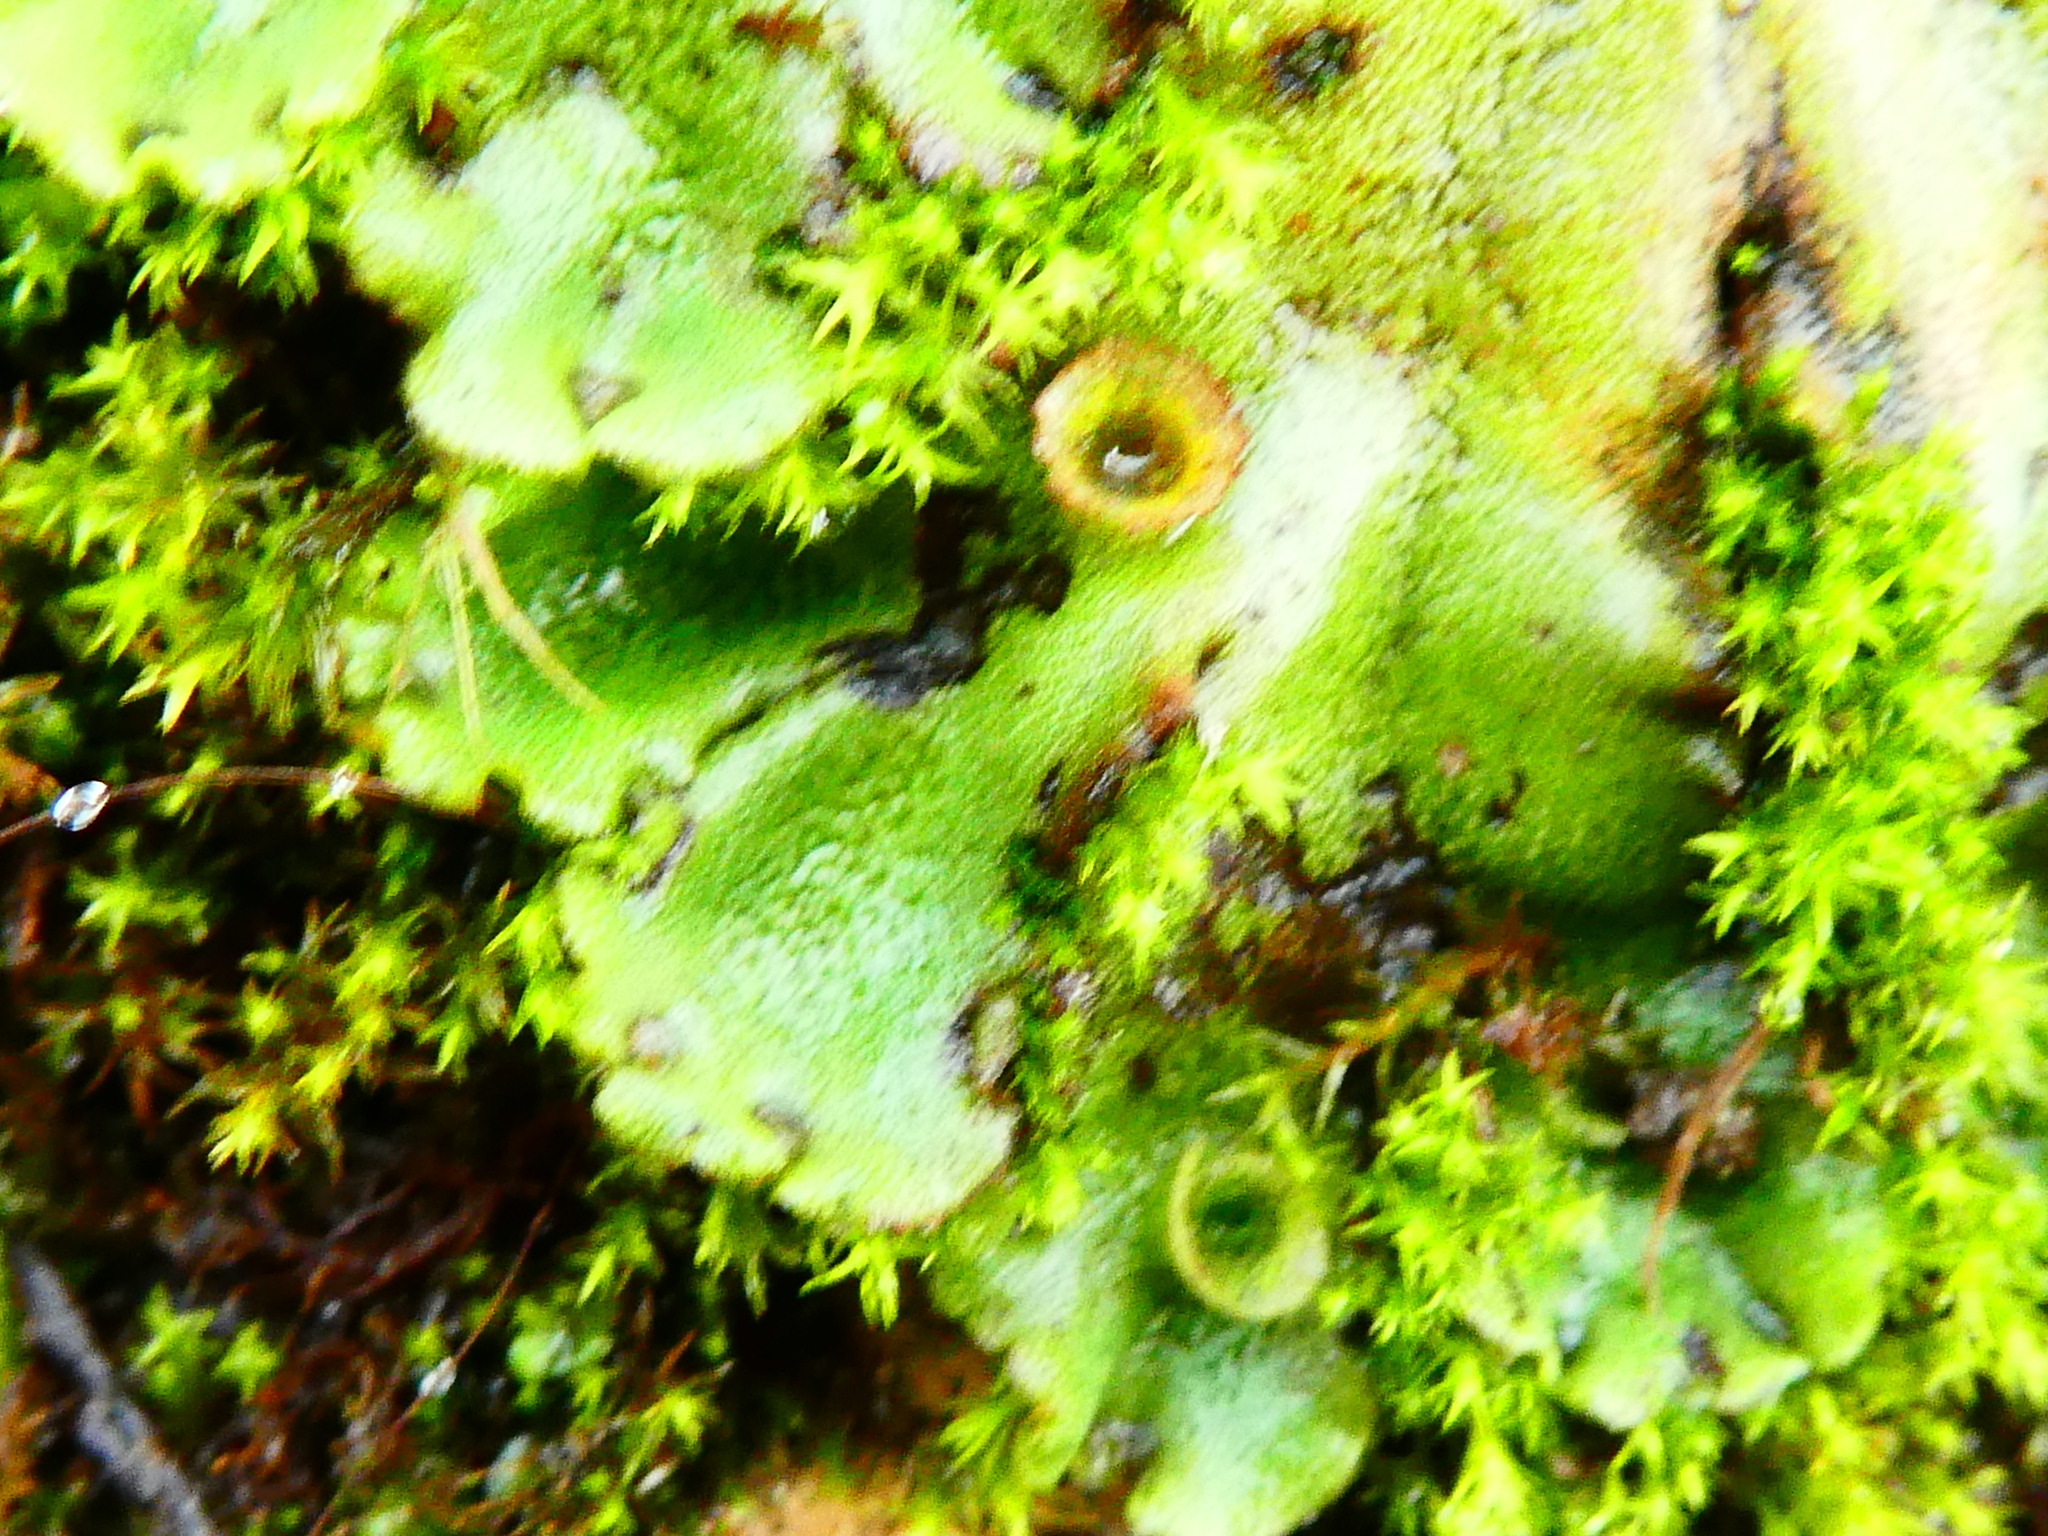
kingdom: Plantae
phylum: Marchantiophyta
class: Marchantiopsida
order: Marchantiales
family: Marchantiaceae
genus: Marchantia
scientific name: Marchantia polymorpha
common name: Common liverwort
